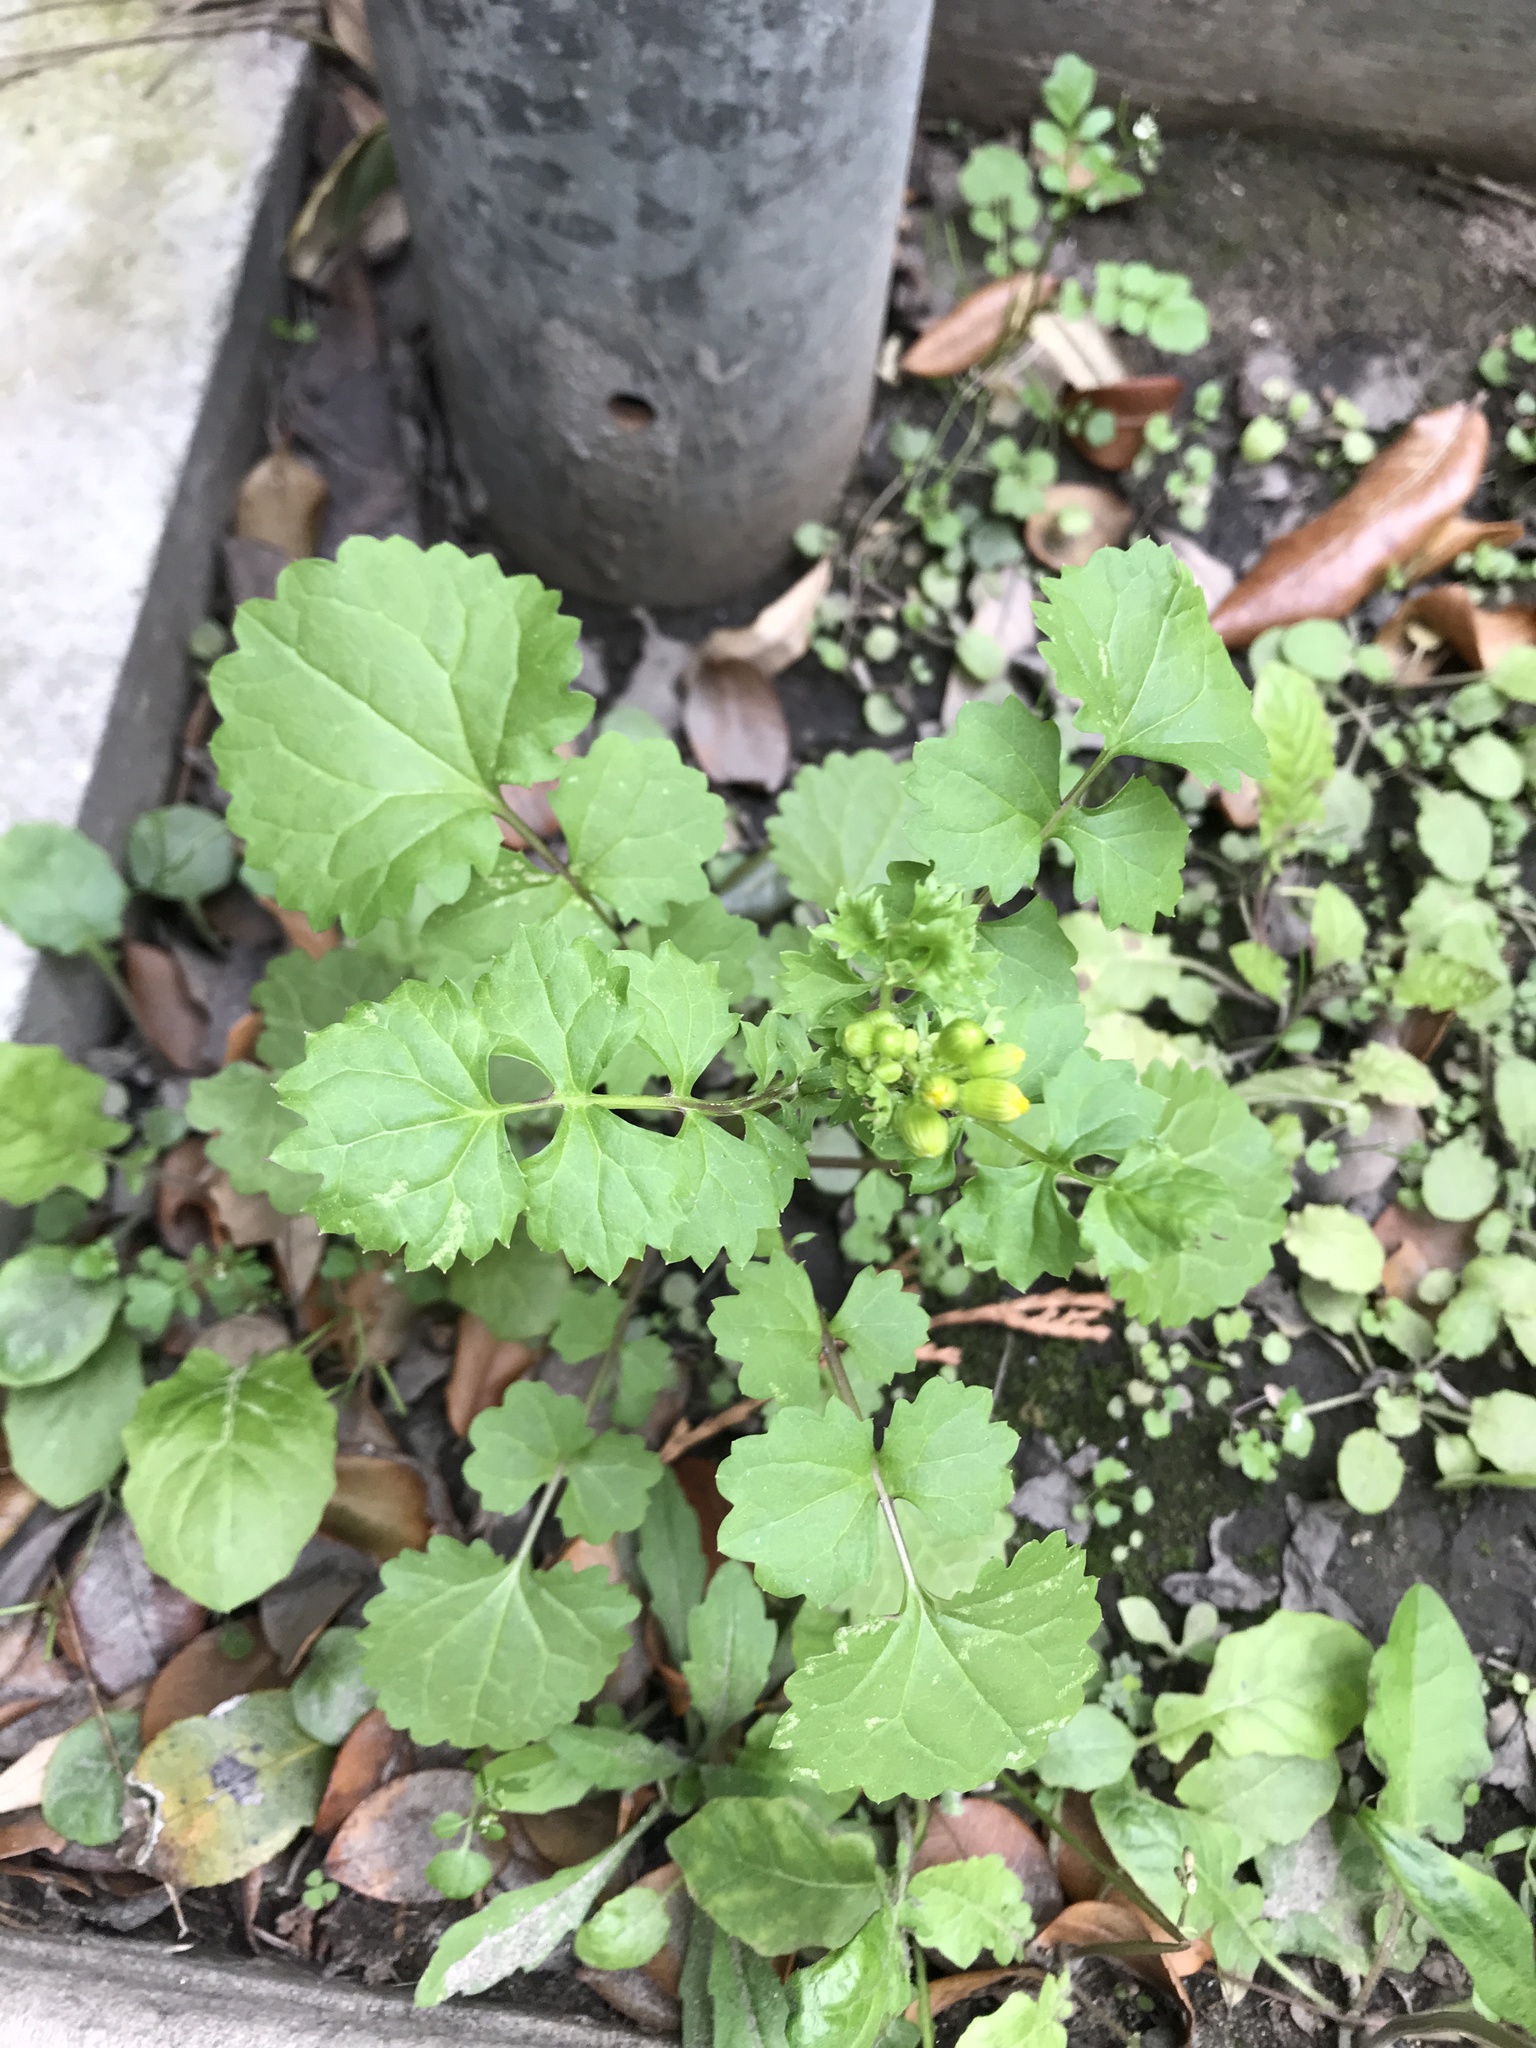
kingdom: Plantae
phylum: Tracheophyta
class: Magnoliopsida
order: Asterales
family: Asteraceae
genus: Packera
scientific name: Packera glabella
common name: Butterweed
